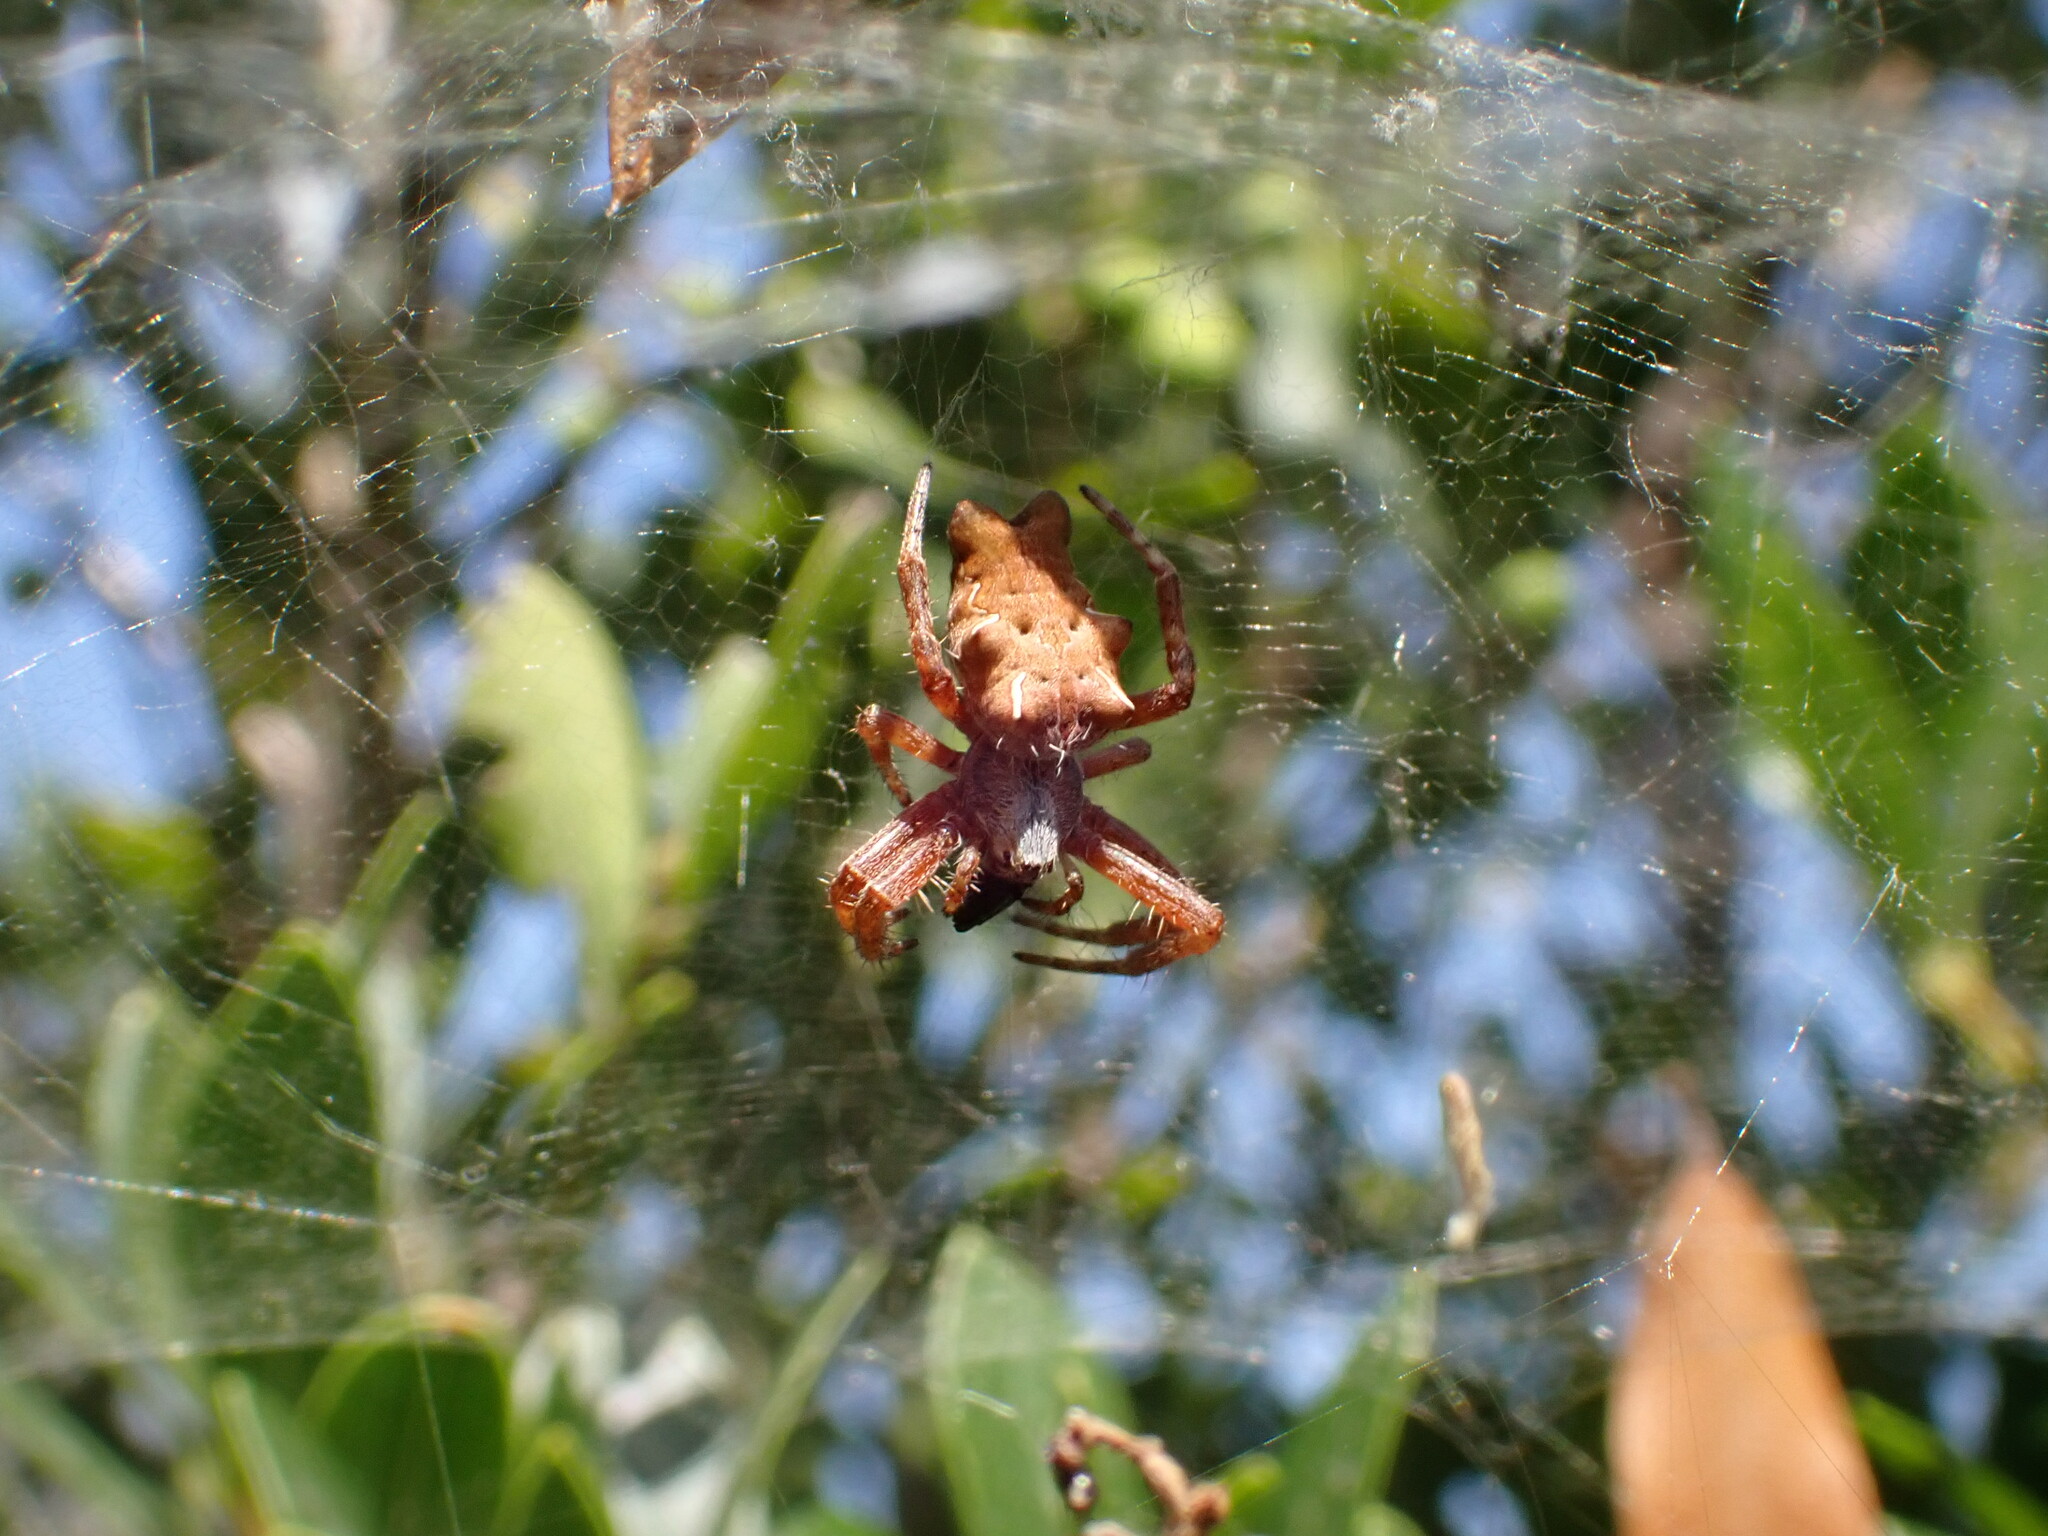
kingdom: Animalia
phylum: Arthropoda
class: Arachnida
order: Araneae
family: Araneidae
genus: Cyrtophora
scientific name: Cyrtophora citricola
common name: Orb weavers
